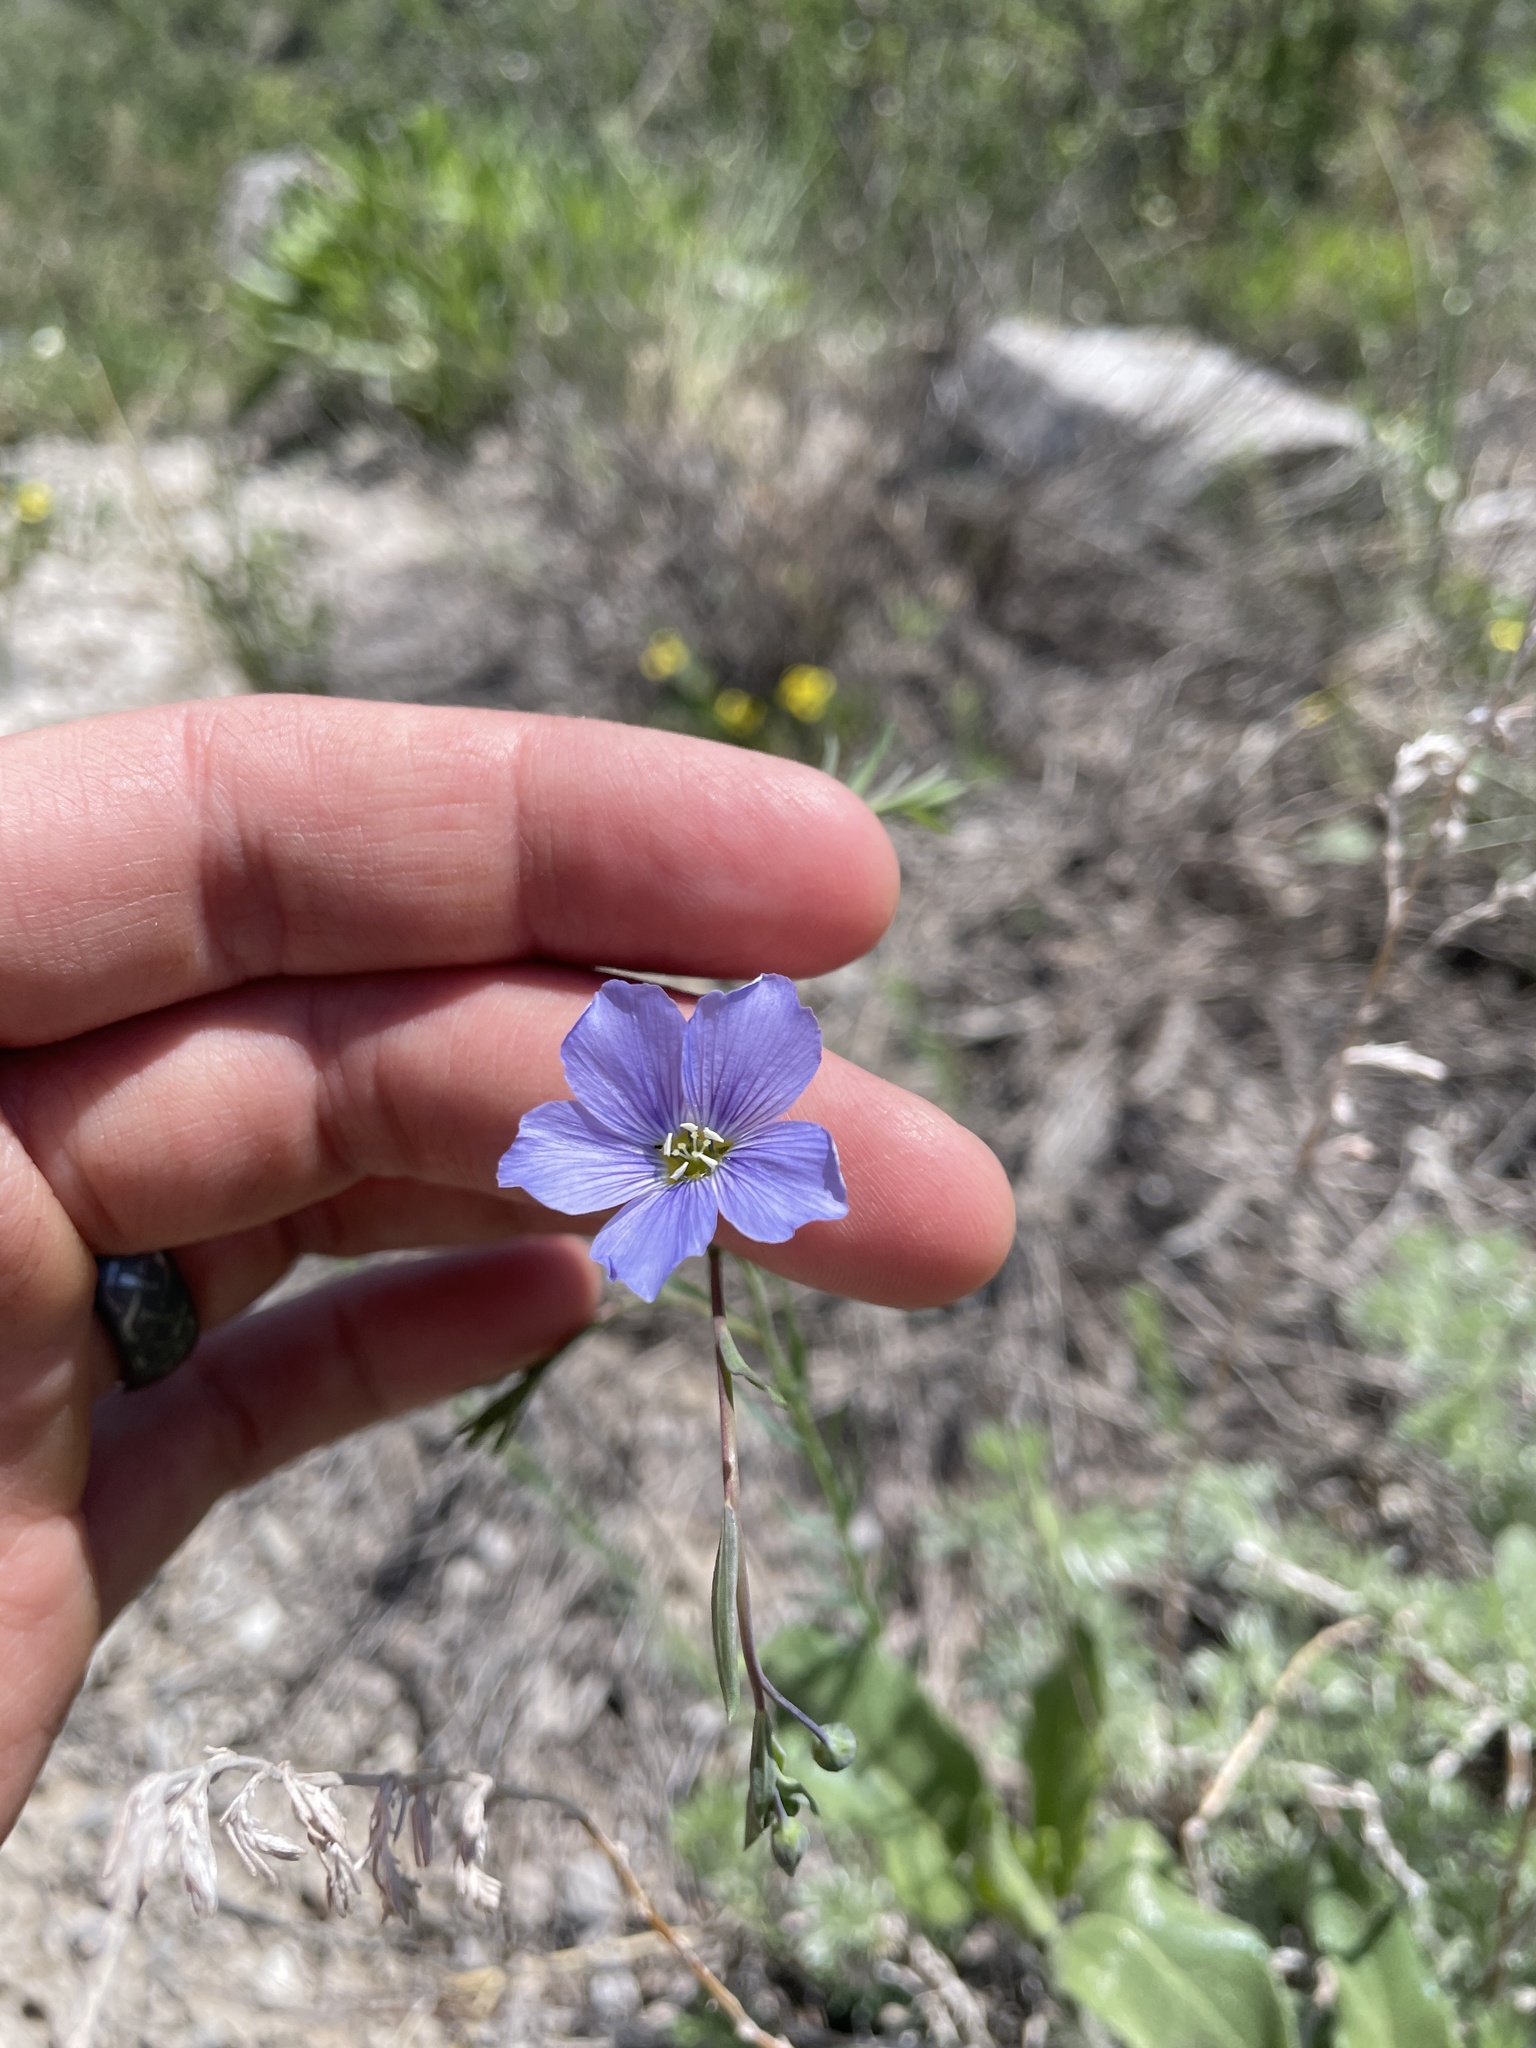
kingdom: Plantae
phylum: Tracheophyta
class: Magnoliopsida
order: Malpighiales
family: Linaceae
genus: Linum
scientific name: Linum pratense
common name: Norton's flax
